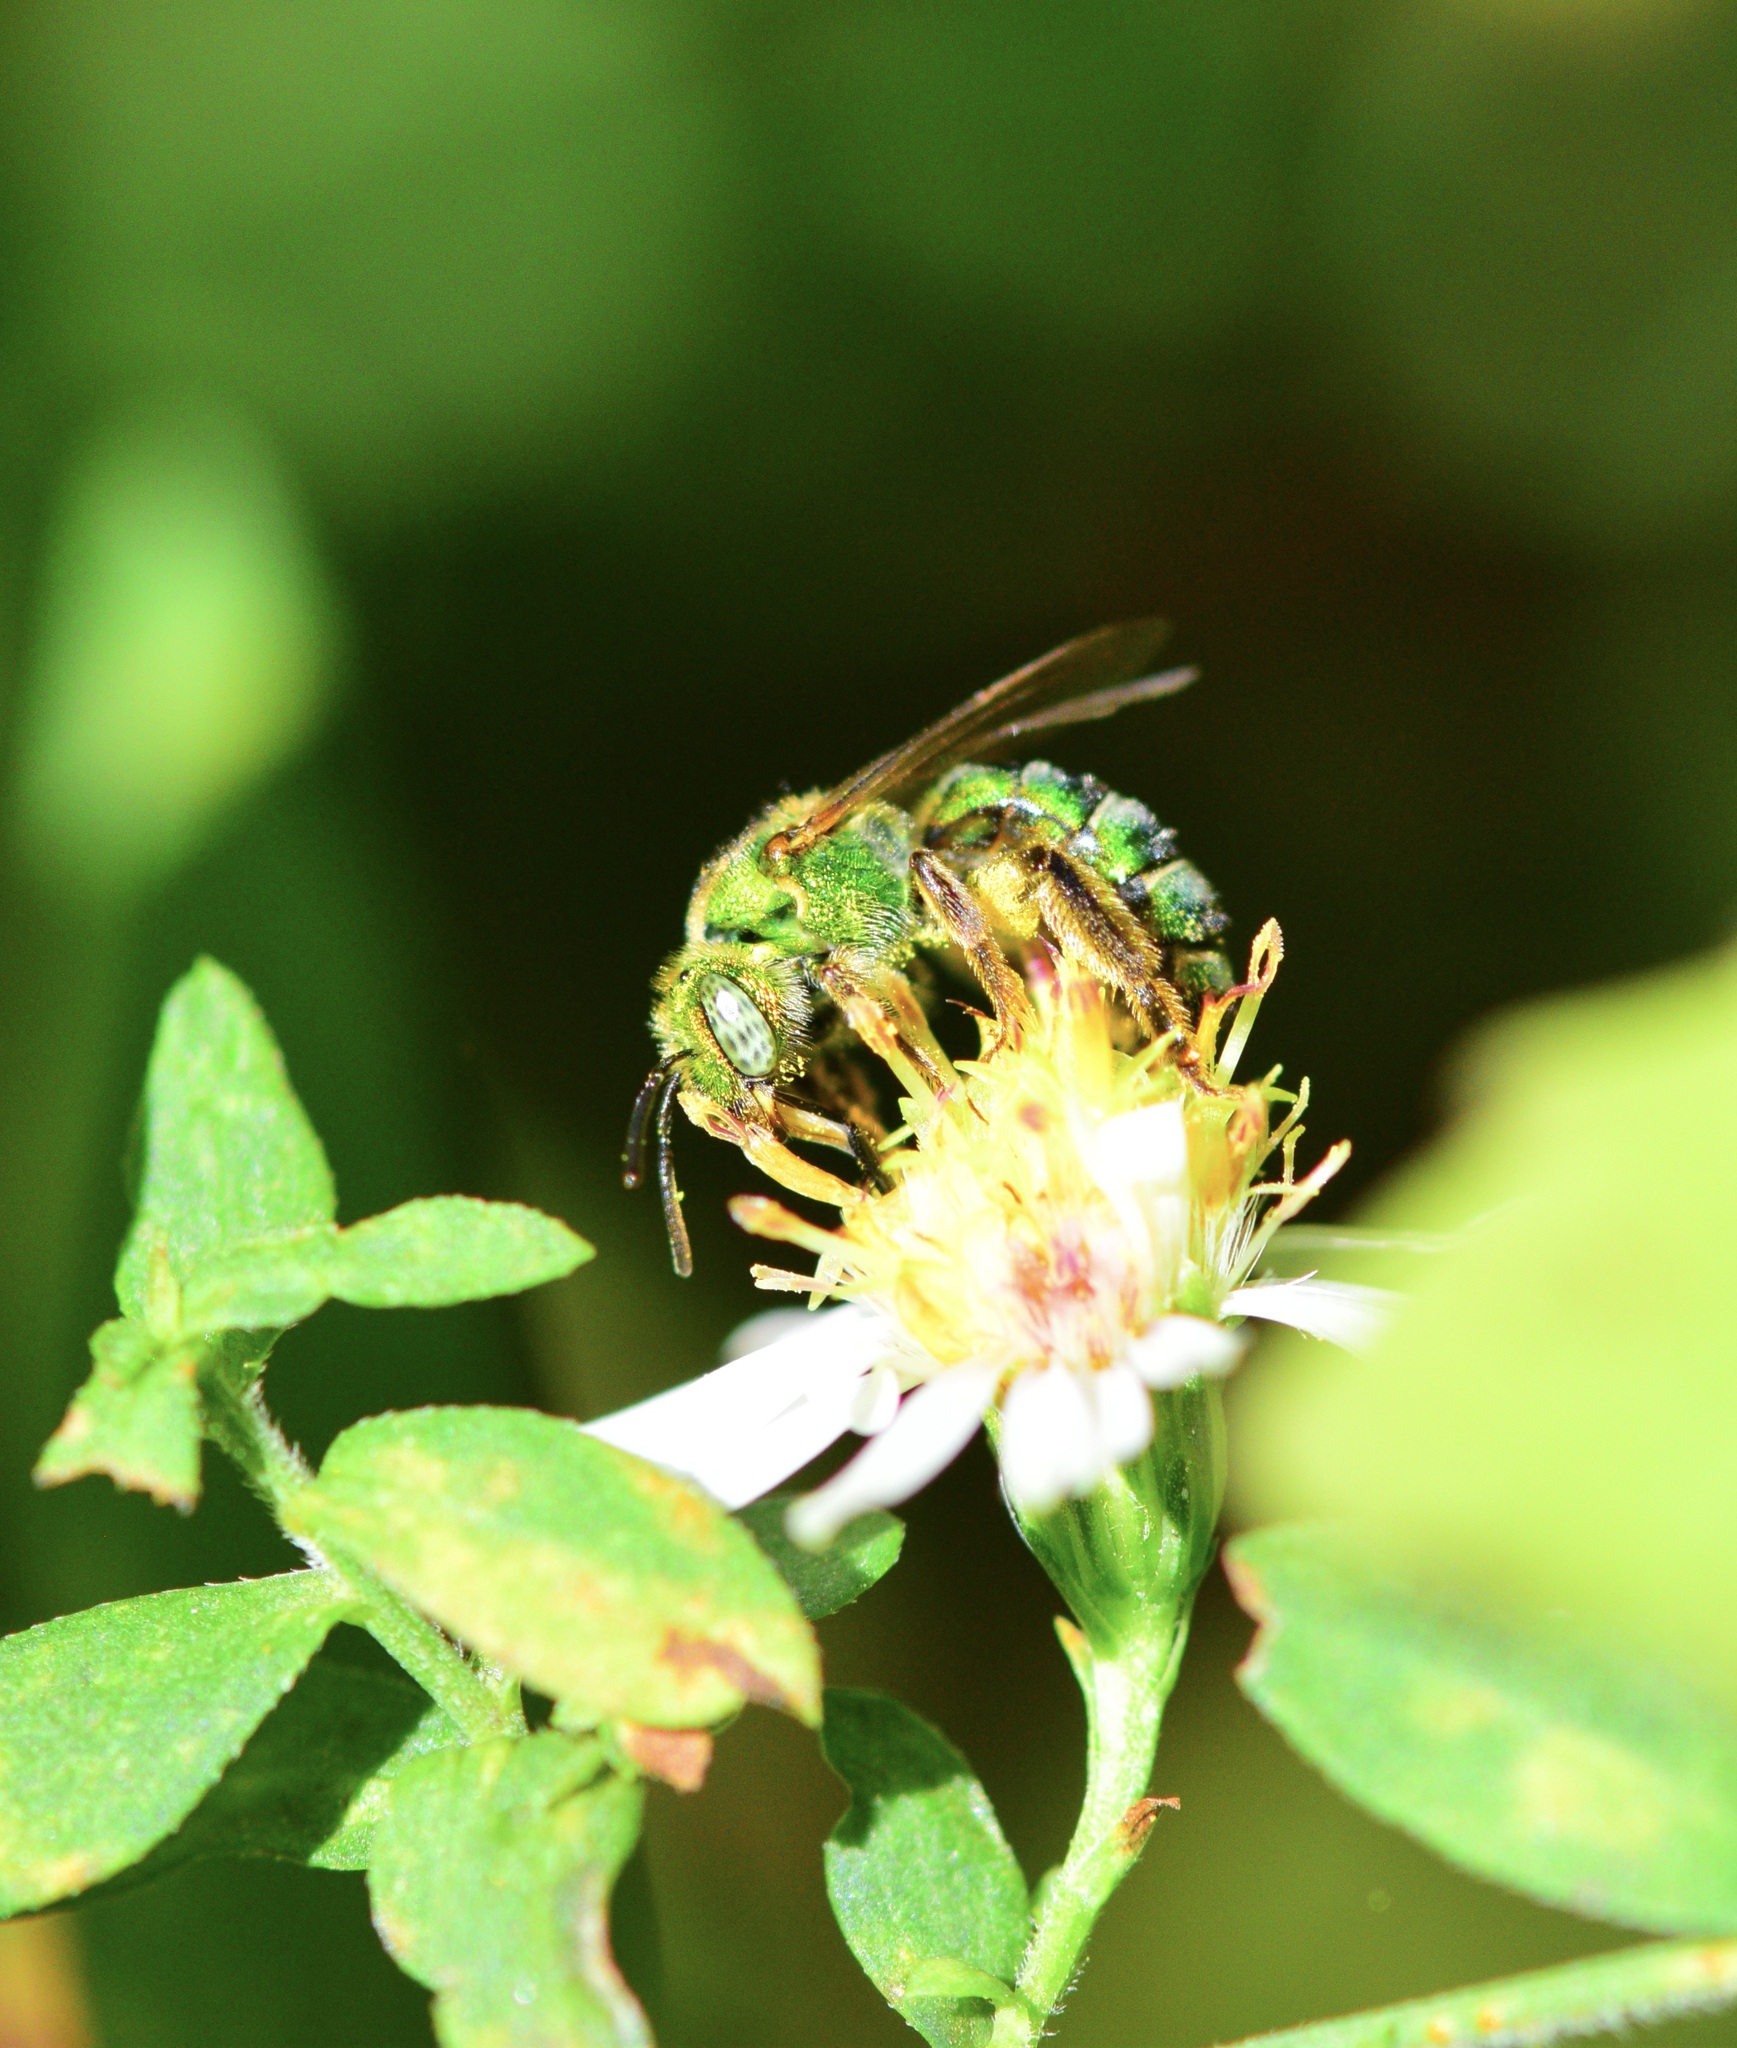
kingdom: Animalia
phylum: Arthropoda
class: Insecta
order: Hymenoptera
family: Halictidae
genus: Agapostemon
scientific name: Agapostemon sericeus
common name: Silky striped sweat bee
